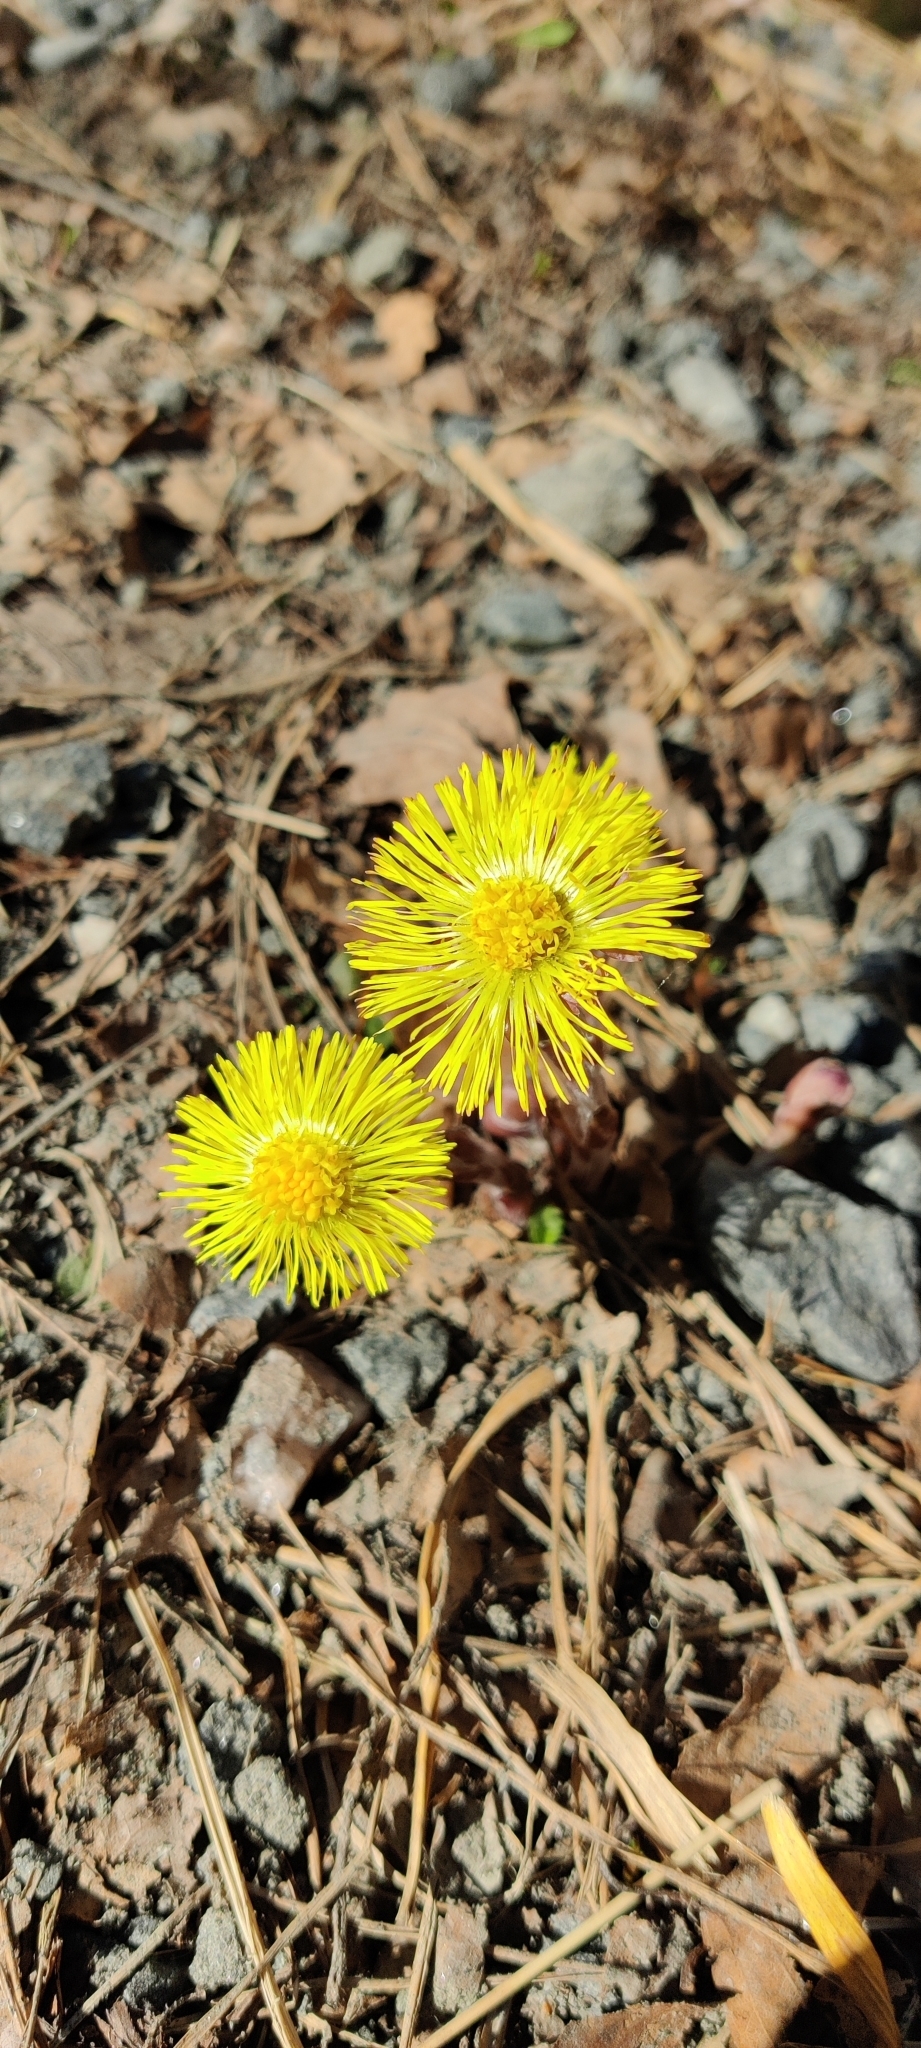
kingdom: Plantae
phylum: Tracheophyta
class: Magnoliopsida
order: Asterales
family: Asteraceae
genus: Tussilago
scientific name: Tussilago farfara
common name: Coltsfoot
